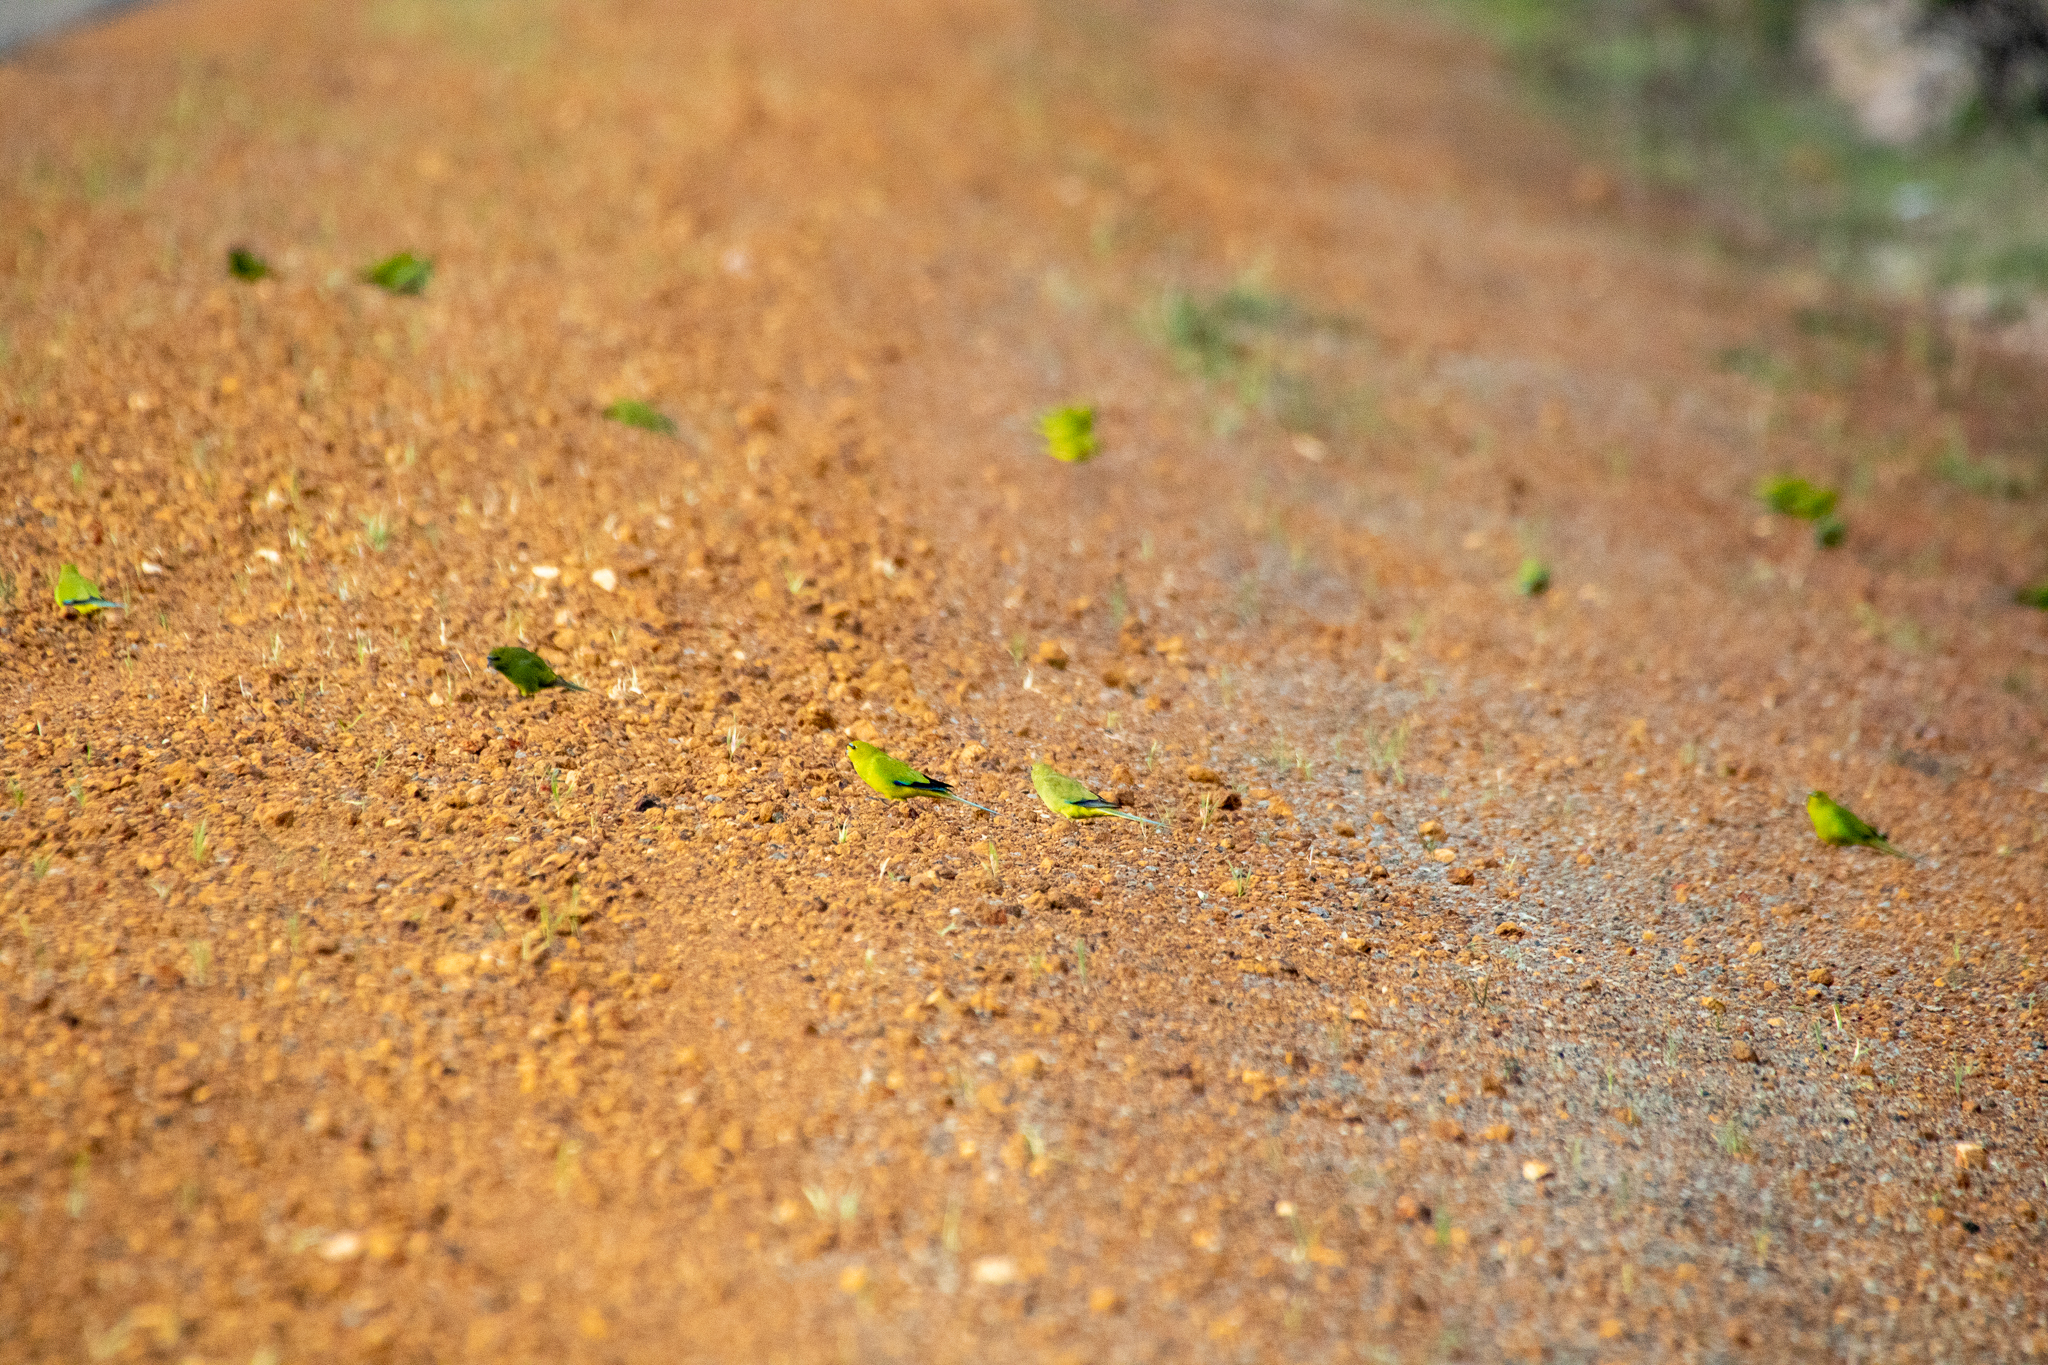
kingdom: Animalia
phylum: Chordata
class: Aves
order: Psittaciformes
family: Psittacidae
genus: Neophema
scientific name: Neophema elegans
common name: Elegant parrot
